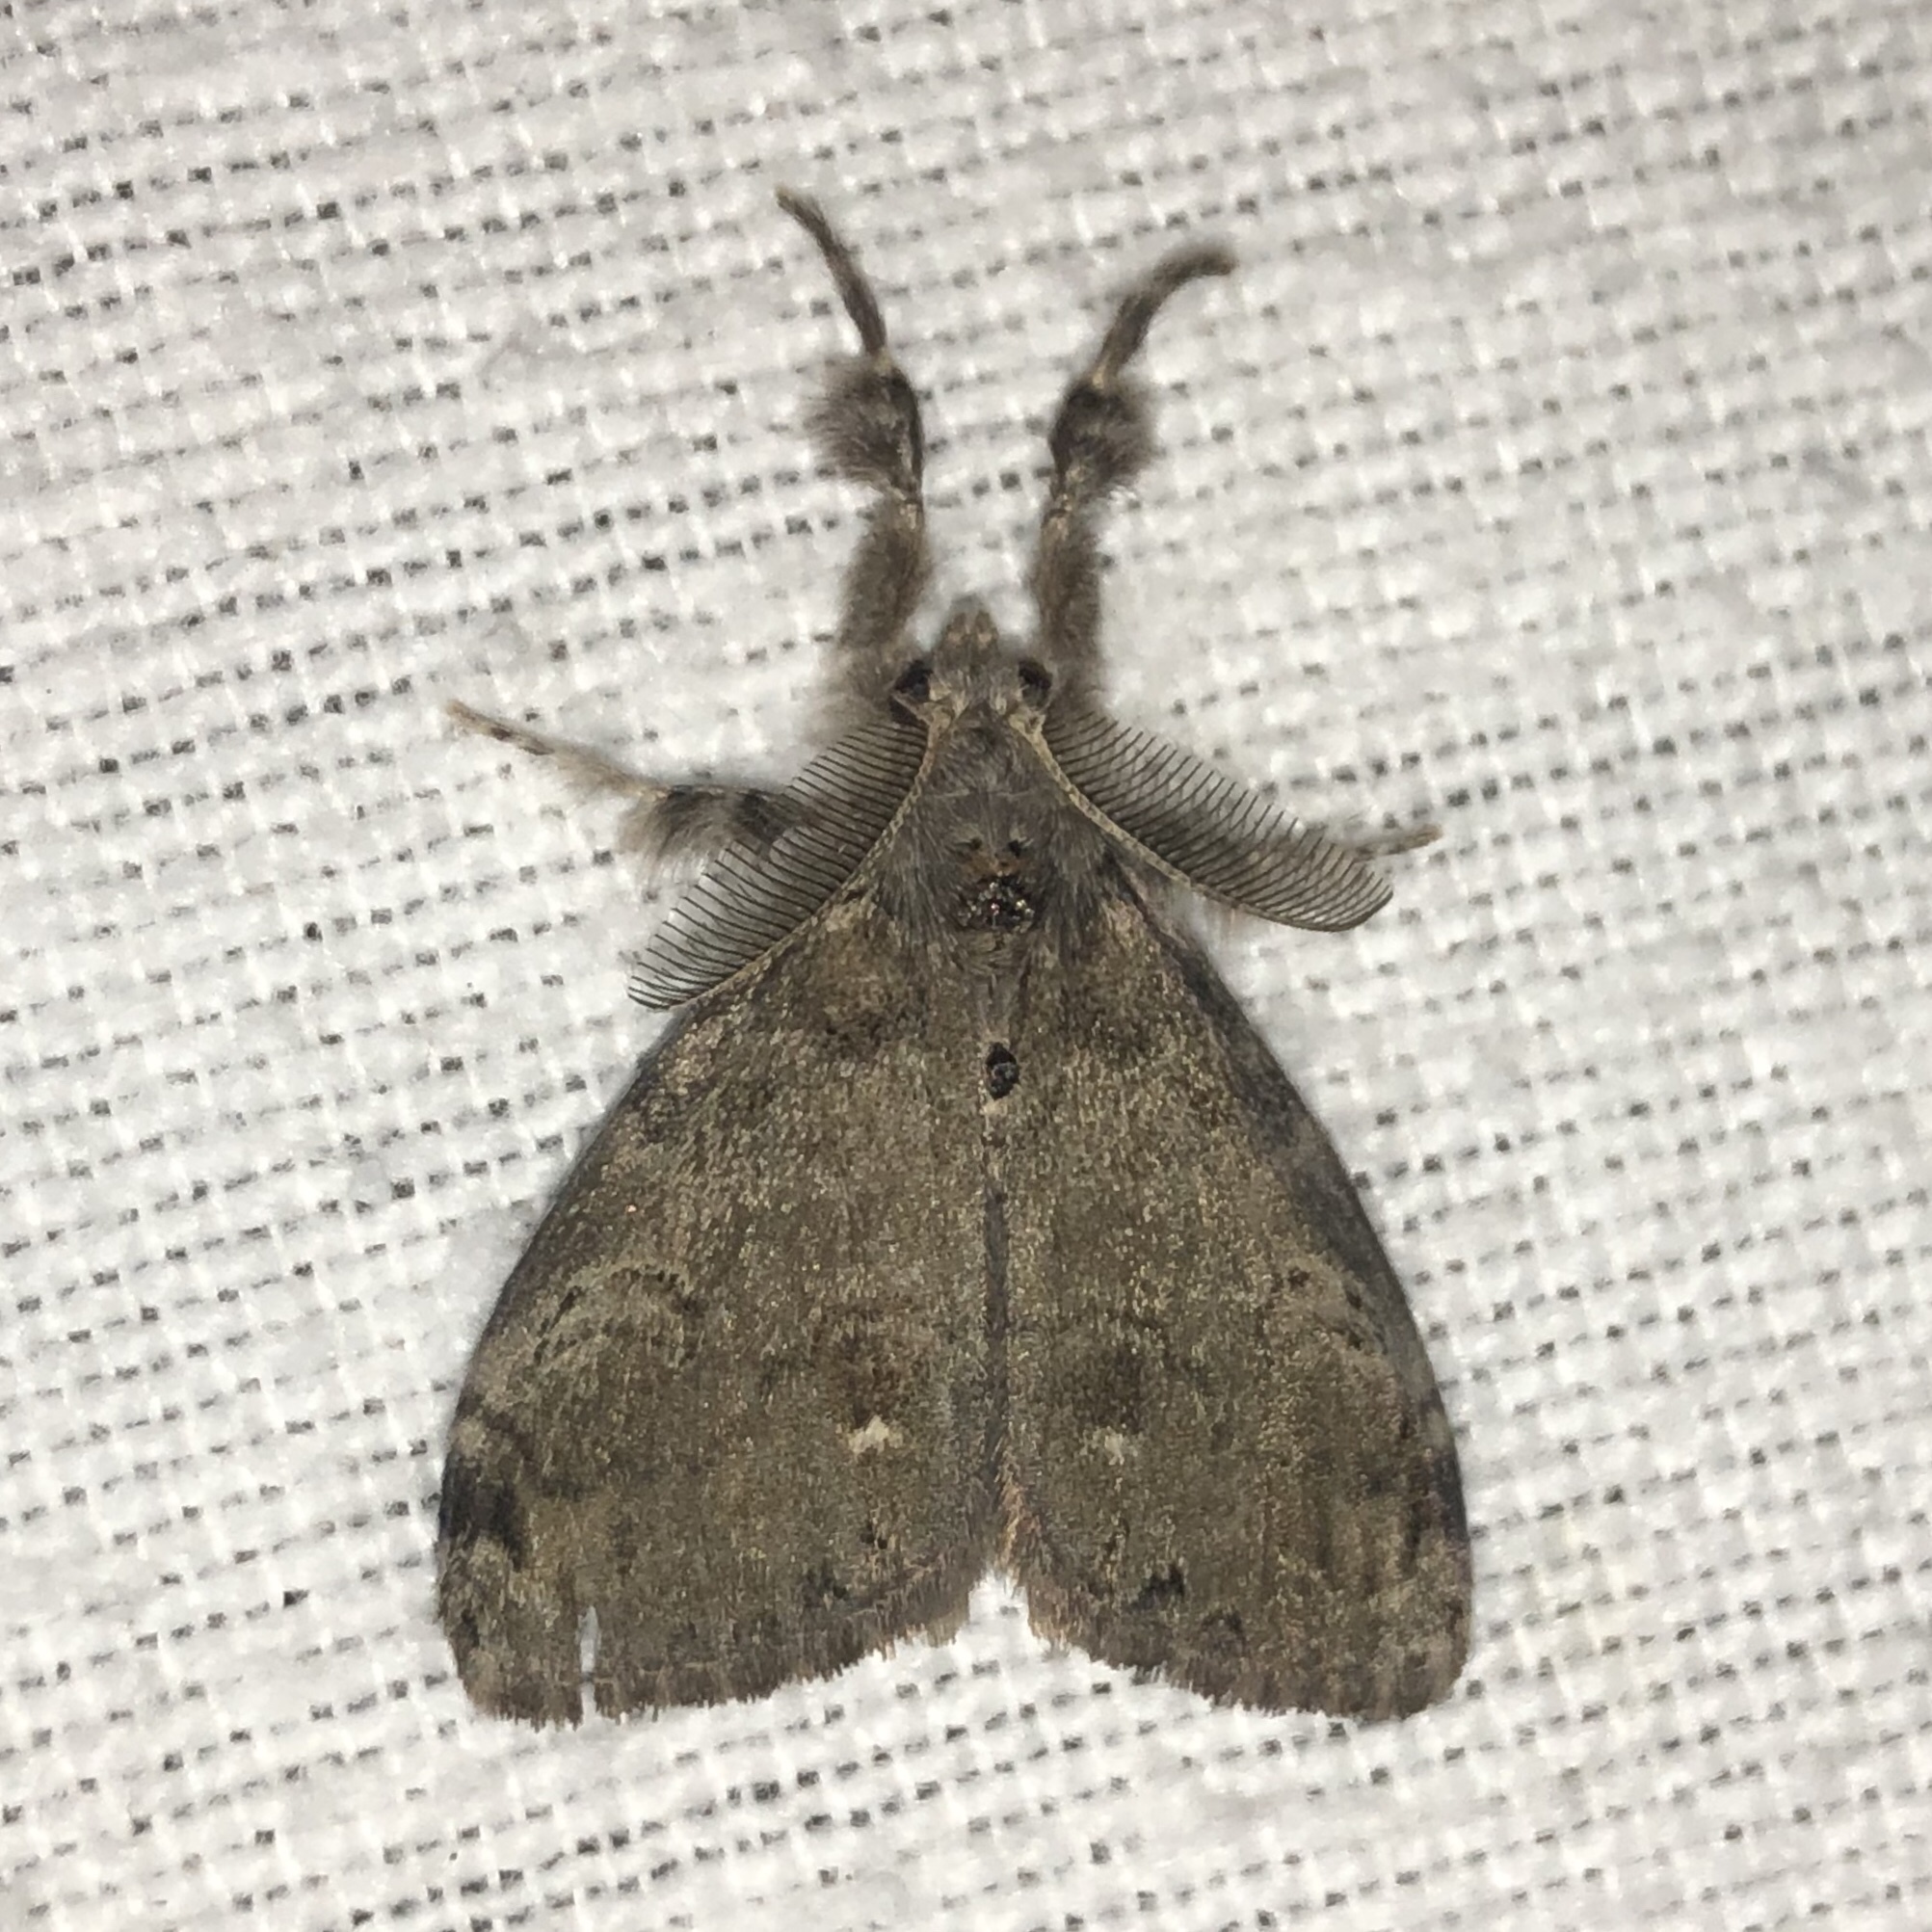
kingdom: Animalia
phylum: Arthropoda
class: Insecta
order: Lepidoptera
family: Erebidae
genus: Orgyia
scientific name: Orgyia leucostigma
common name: White-marked tussock moth
